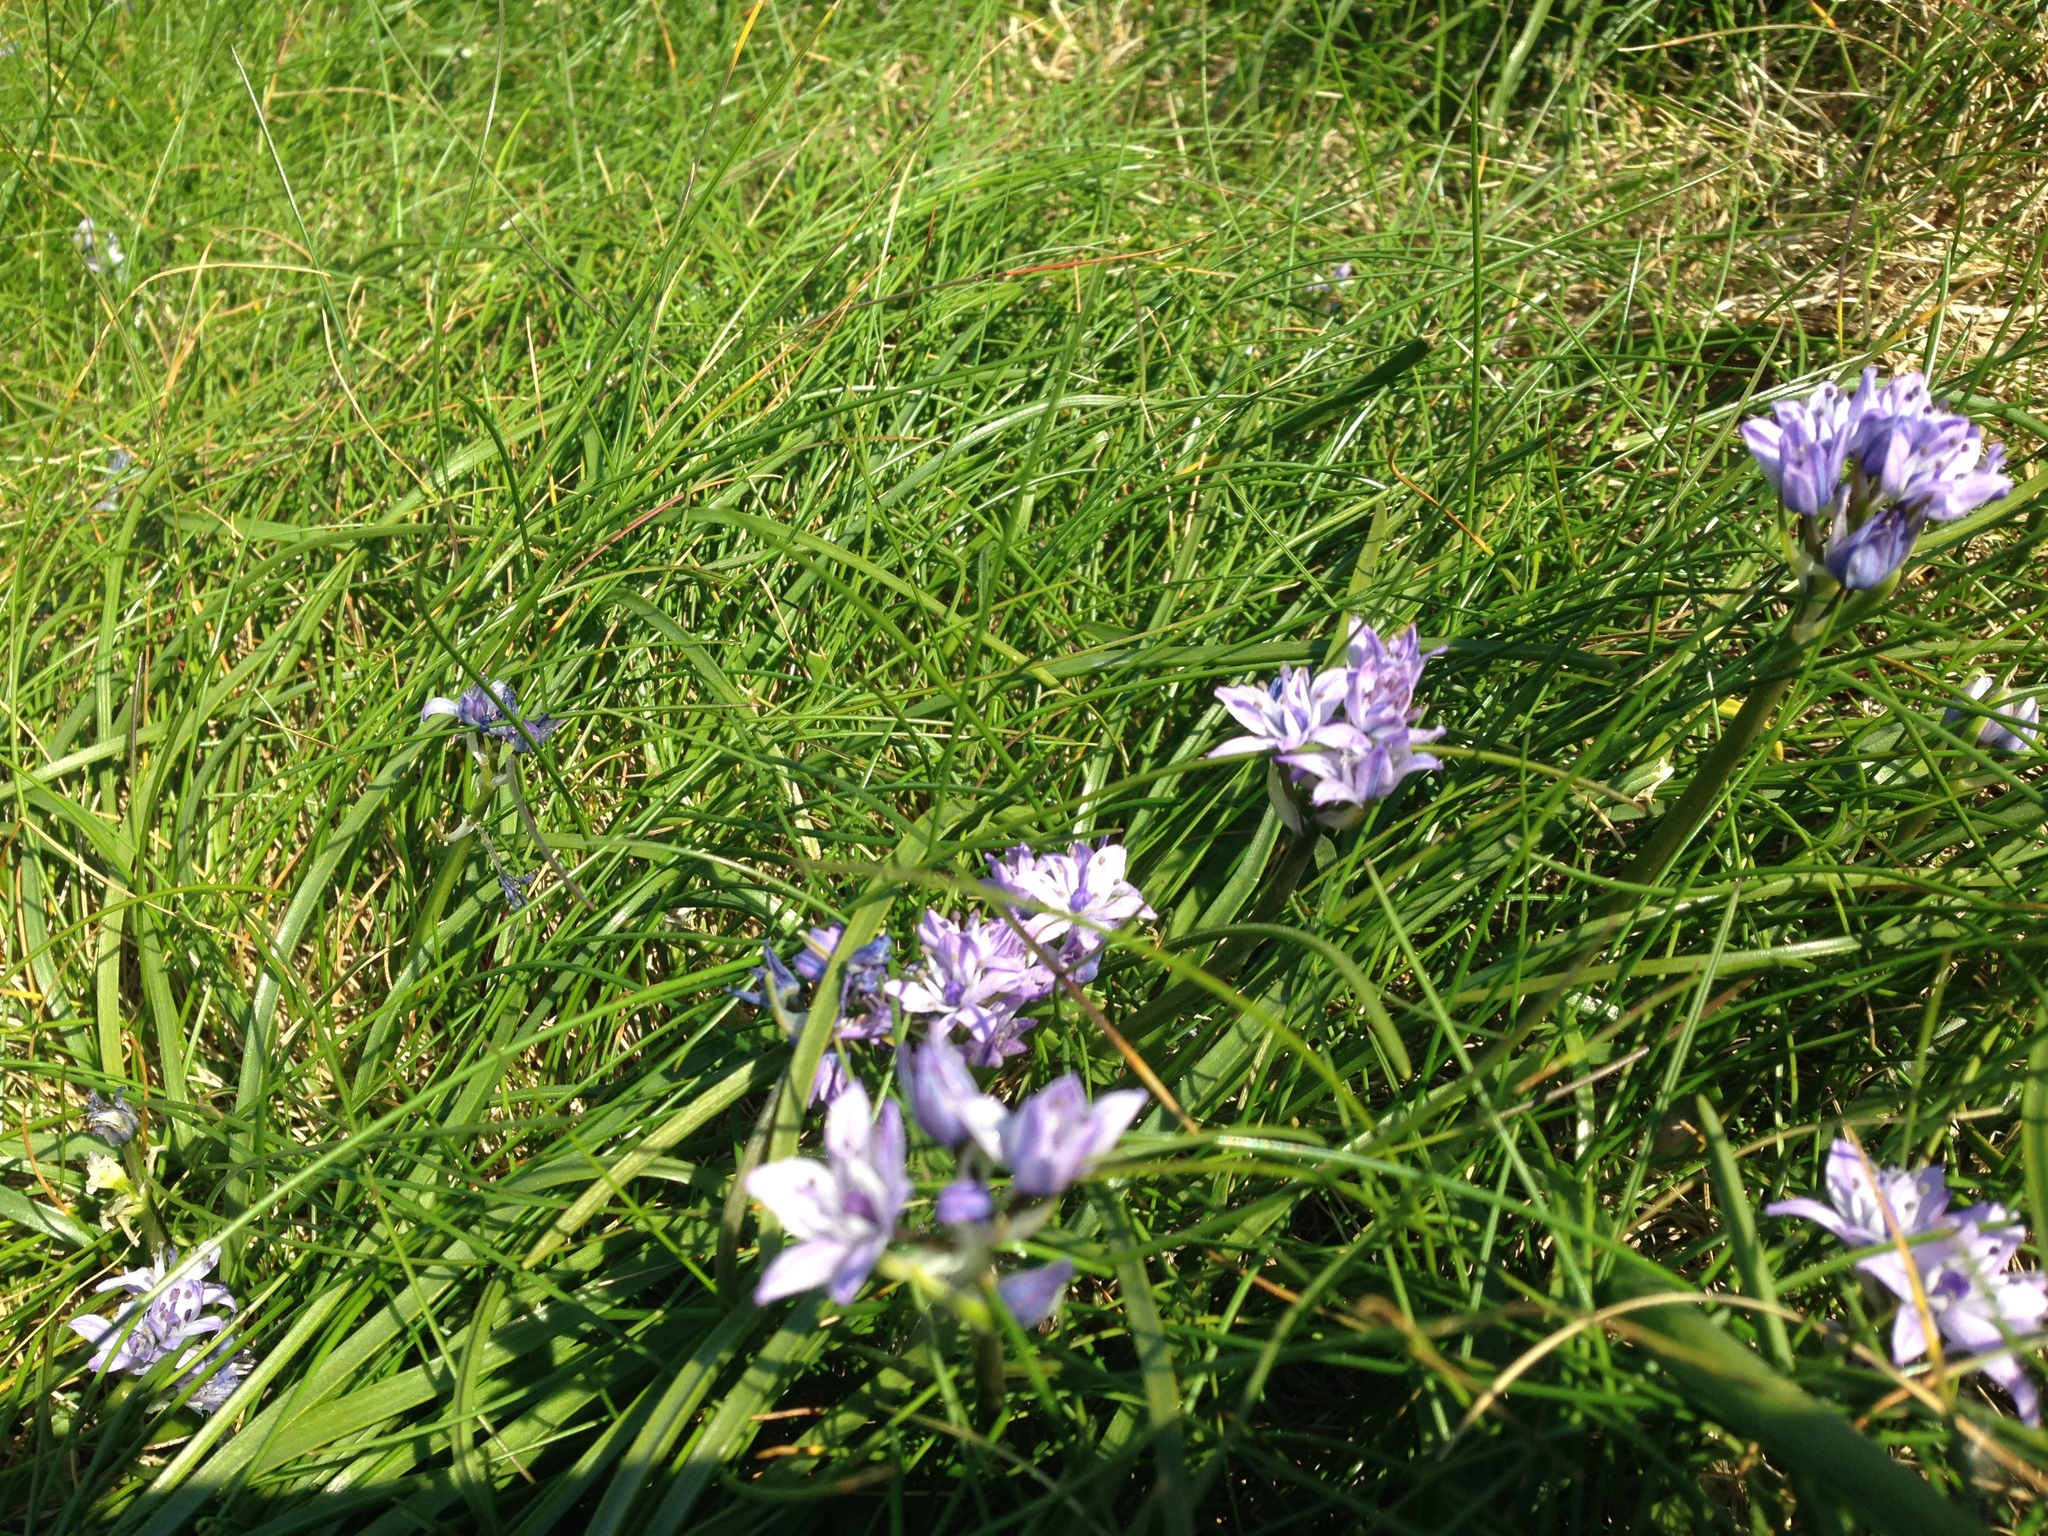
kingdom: Plantae
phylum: Tracheophyta
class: Liliopsida
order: Asparagales
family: Asparagaceae
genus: Scilla
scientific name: Scilla verna
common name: Spring squill
